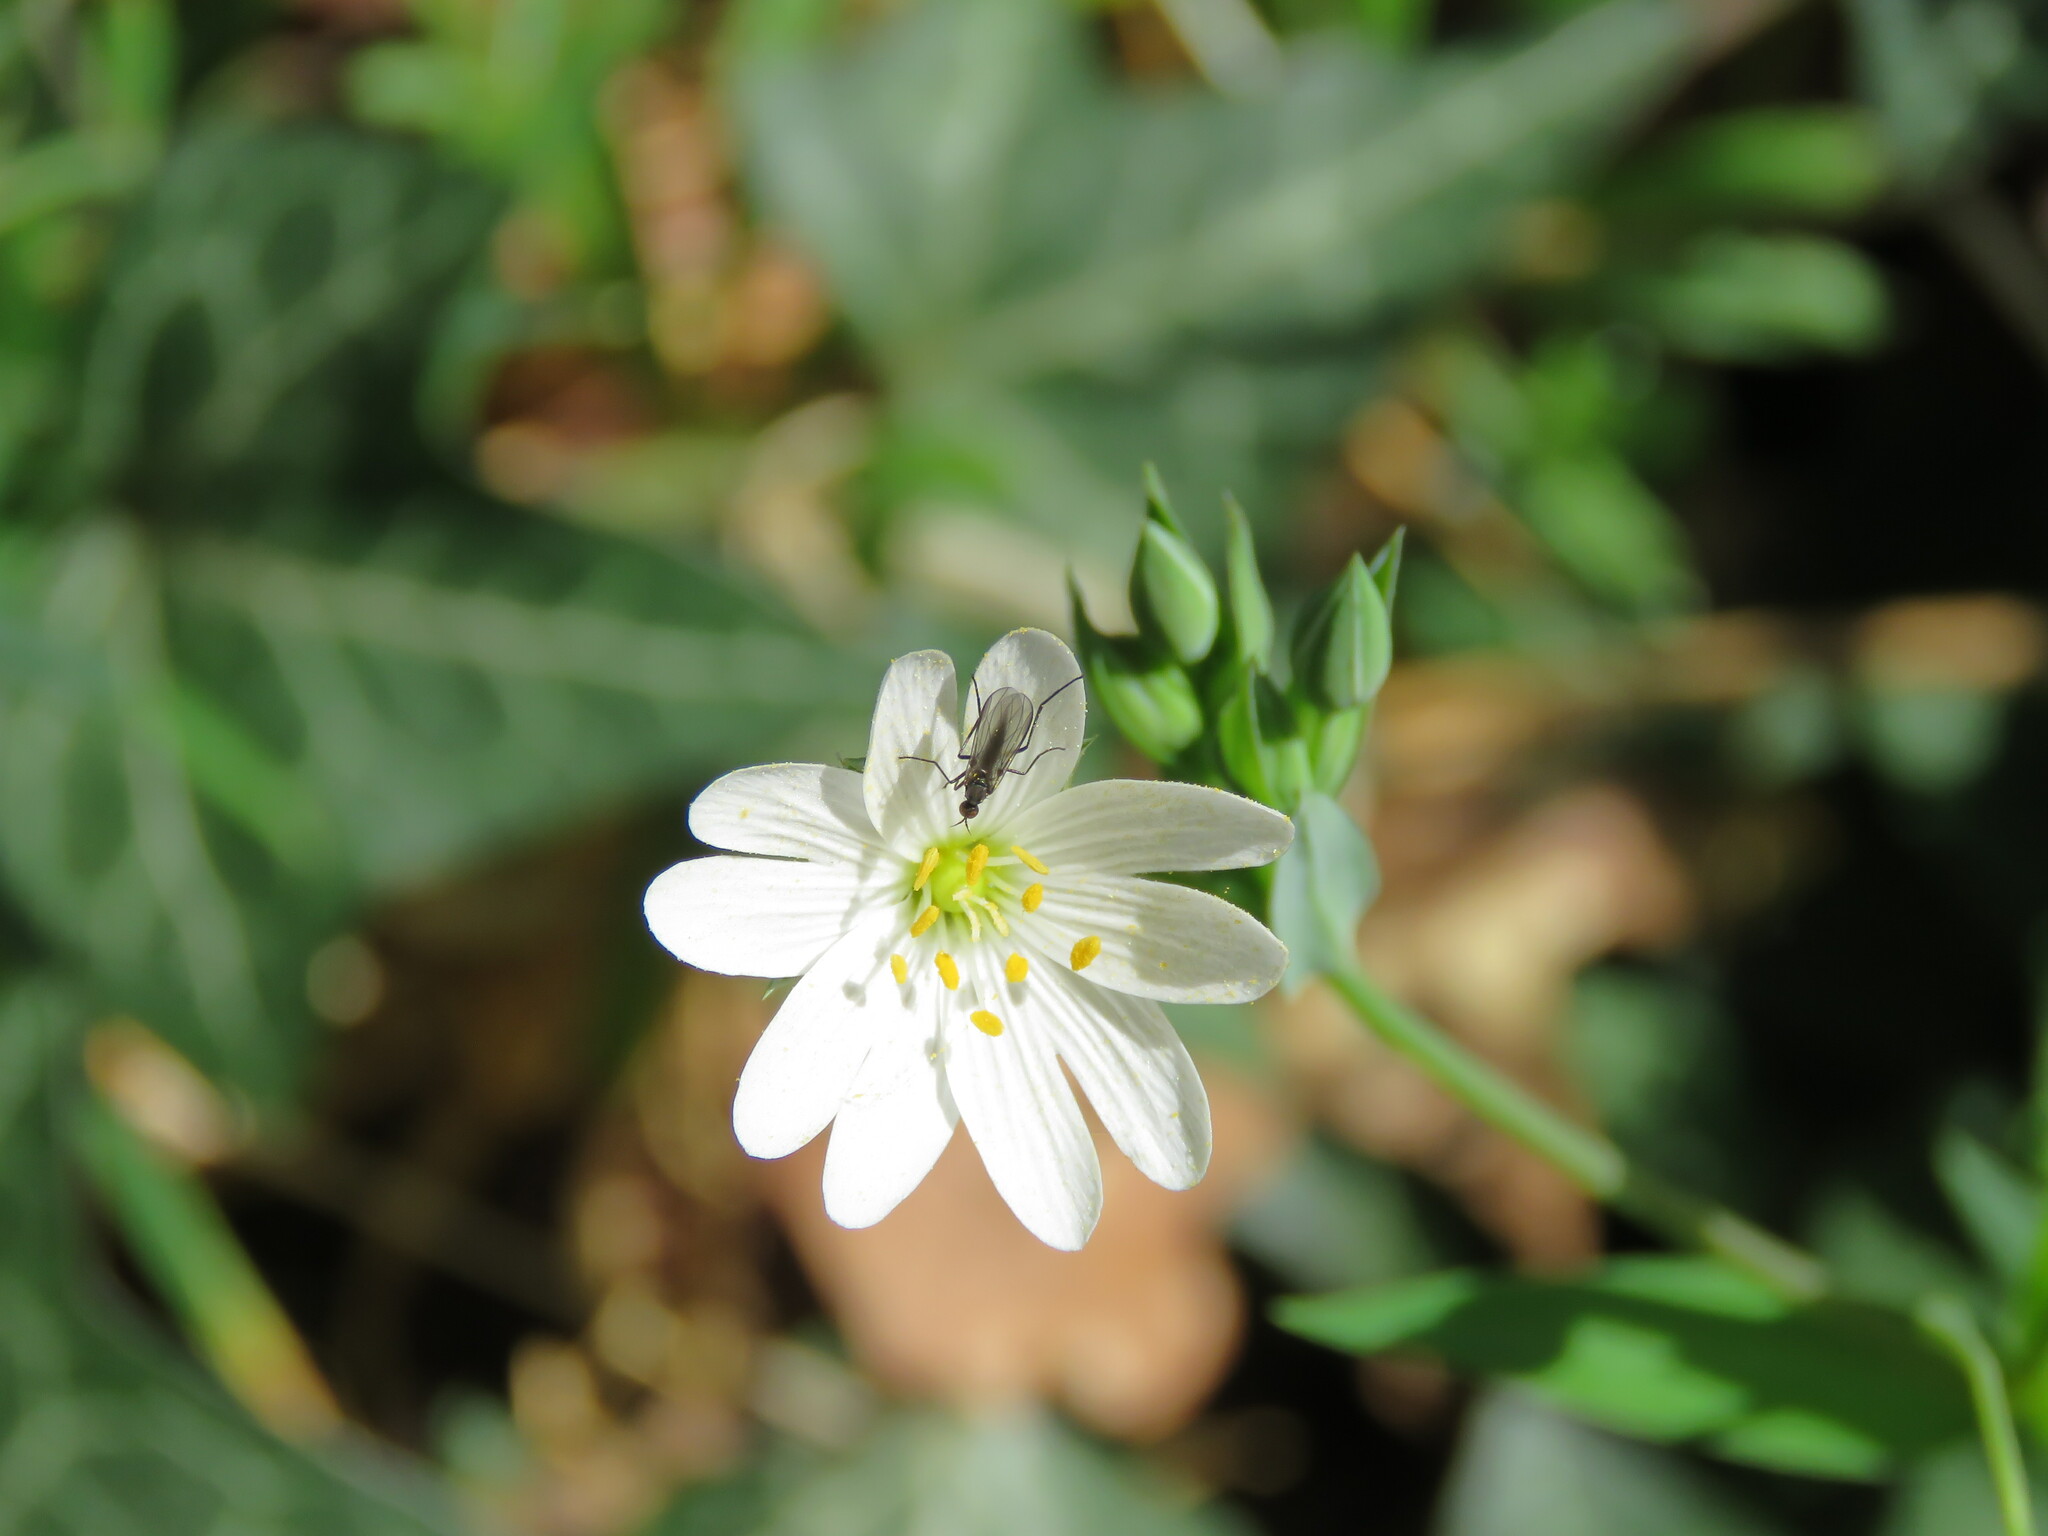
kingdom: Plantae
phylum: Tracheophyta
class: Magnoliopsida
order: Caryophyllales
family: Caryophyllaceae
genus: Rabelera
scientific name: Rabelera holostea
